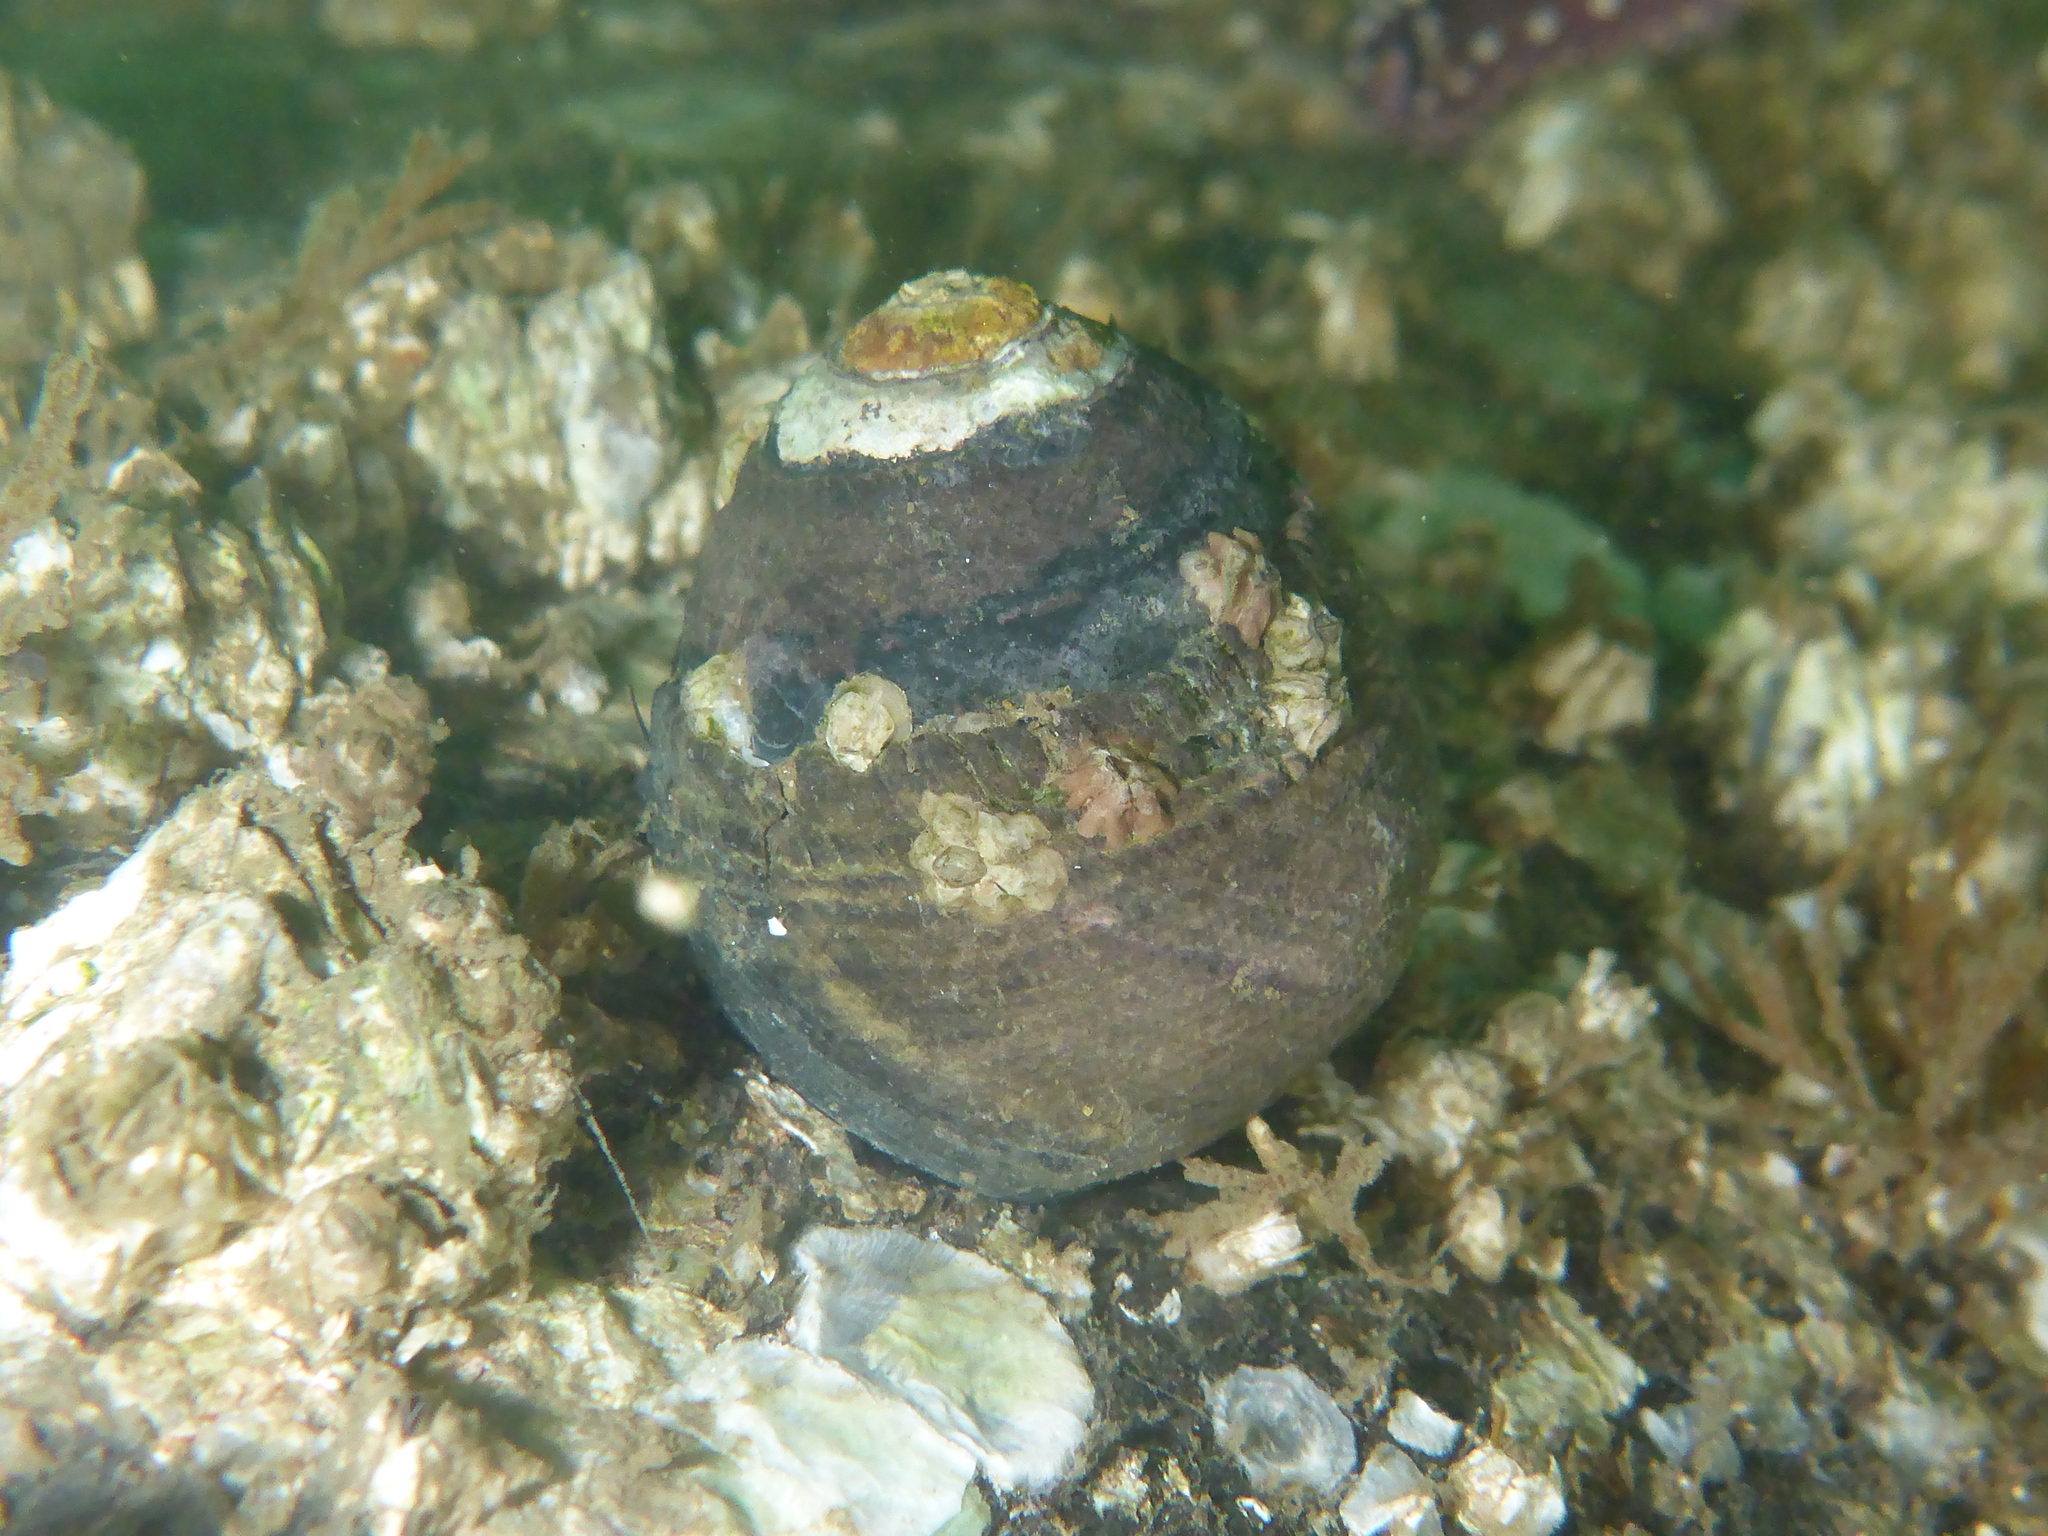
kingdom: Animalia
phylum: Mollusca
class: Gastropoda
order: Trochida
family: Tegulidae
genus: Tegula
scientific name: Tegula funebralis
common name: Black tegula
